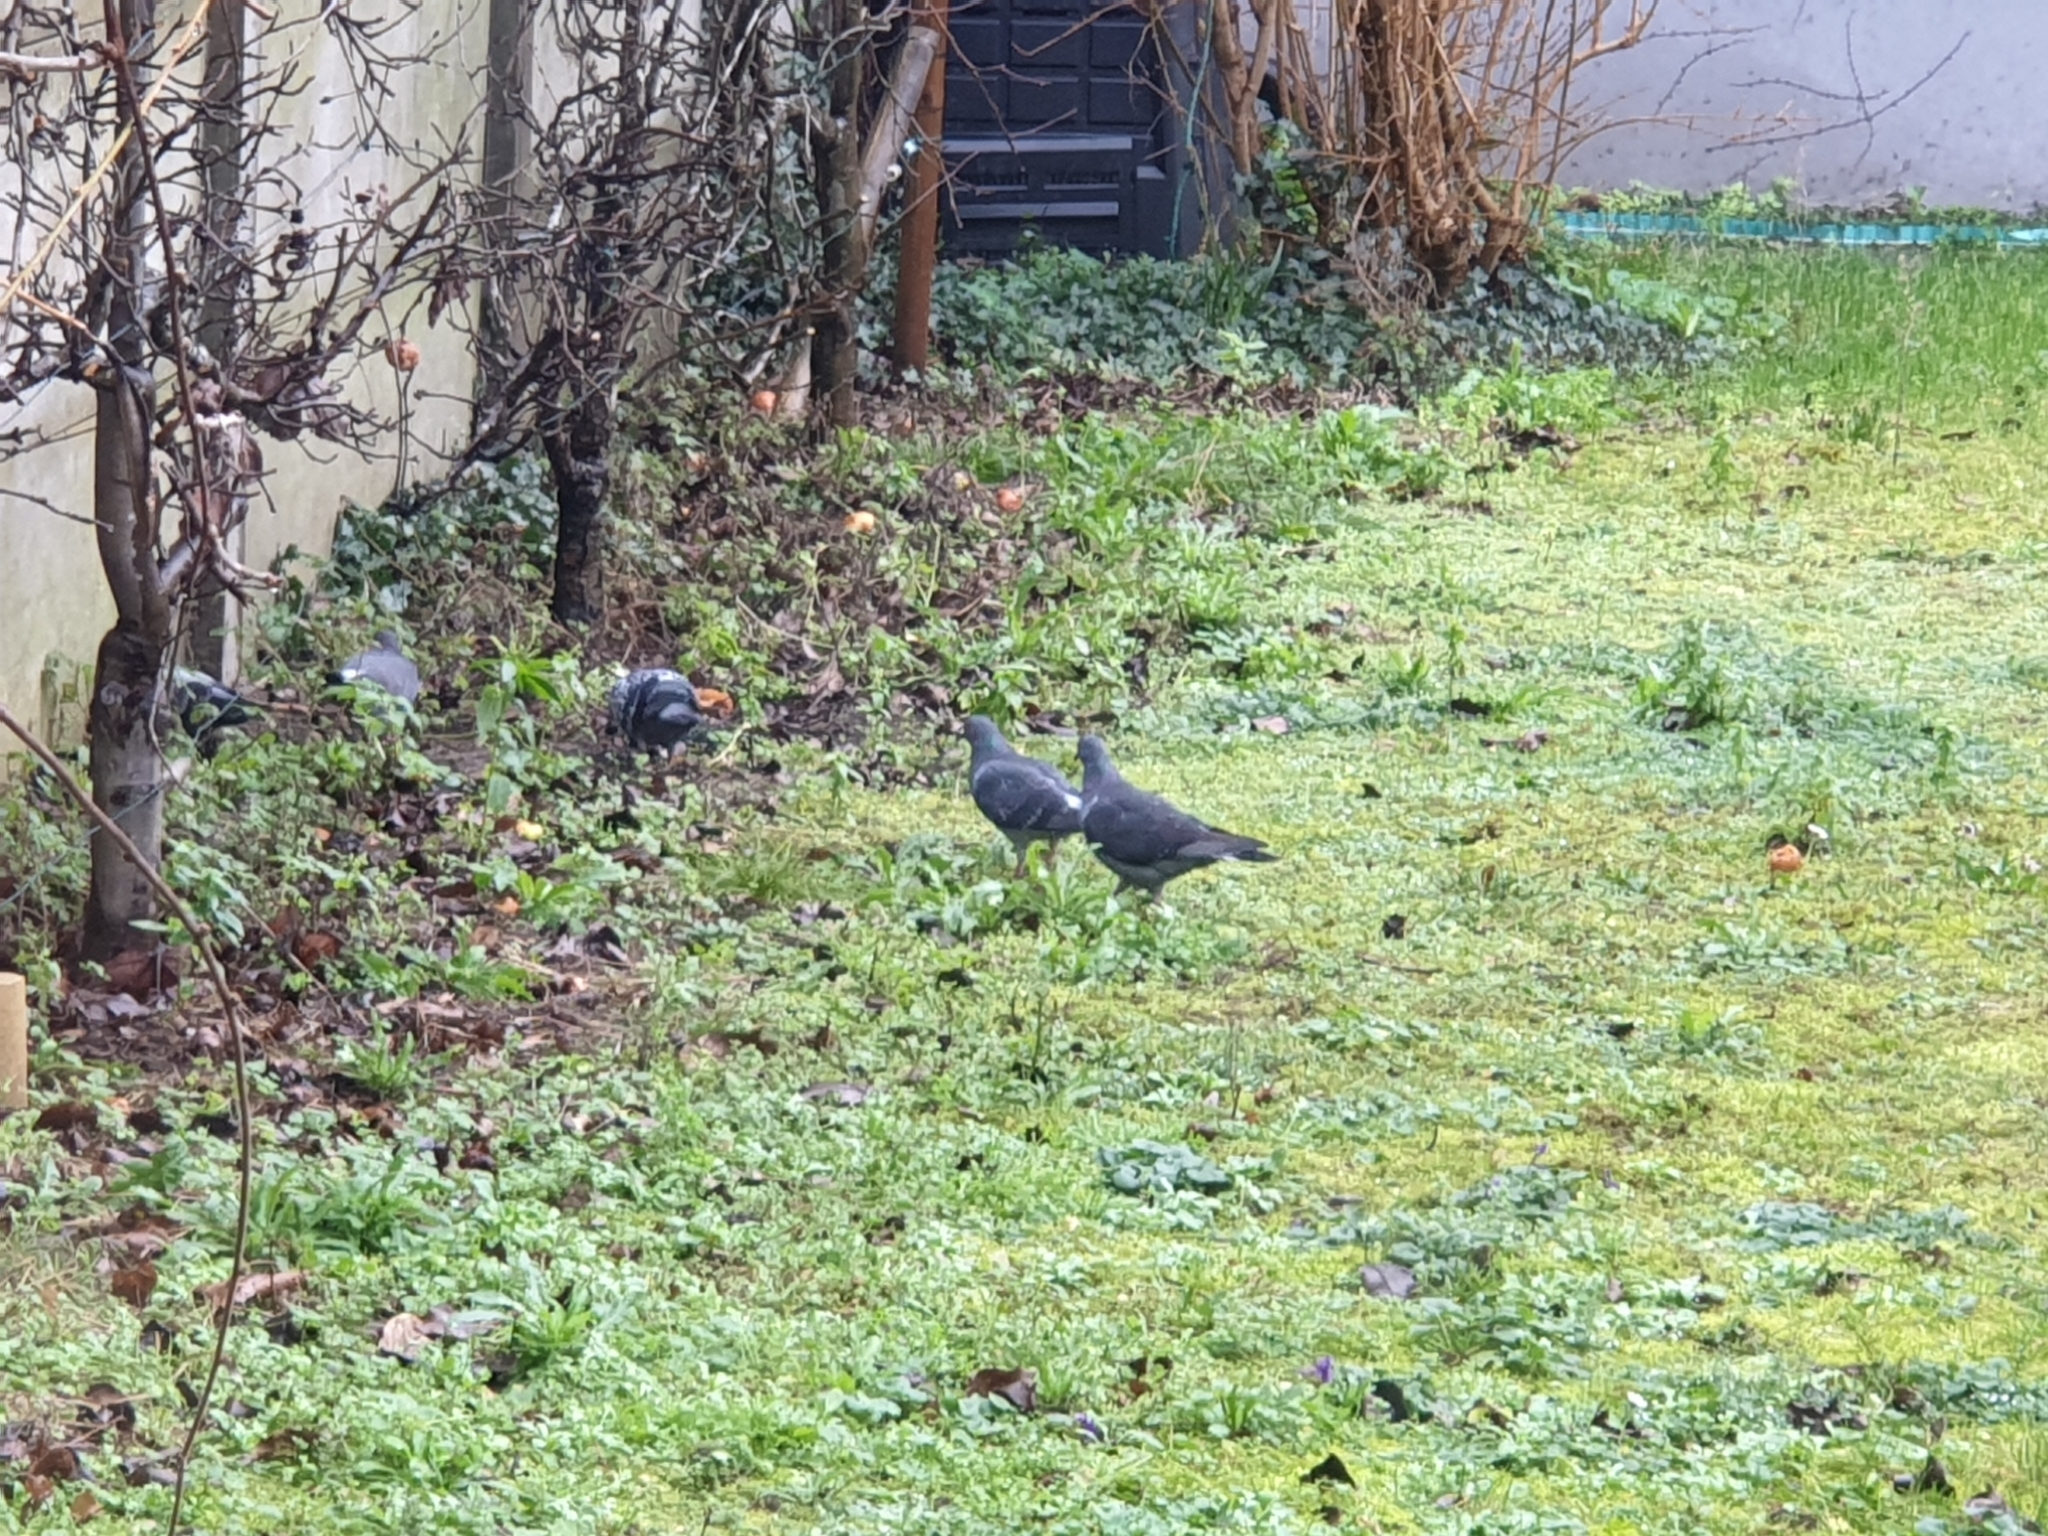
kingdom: Animalia
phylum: Chordata
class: Aves
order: Columbiformes
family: Columbidae
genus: Columba
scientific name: Columba livia
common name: Rock pigeon
